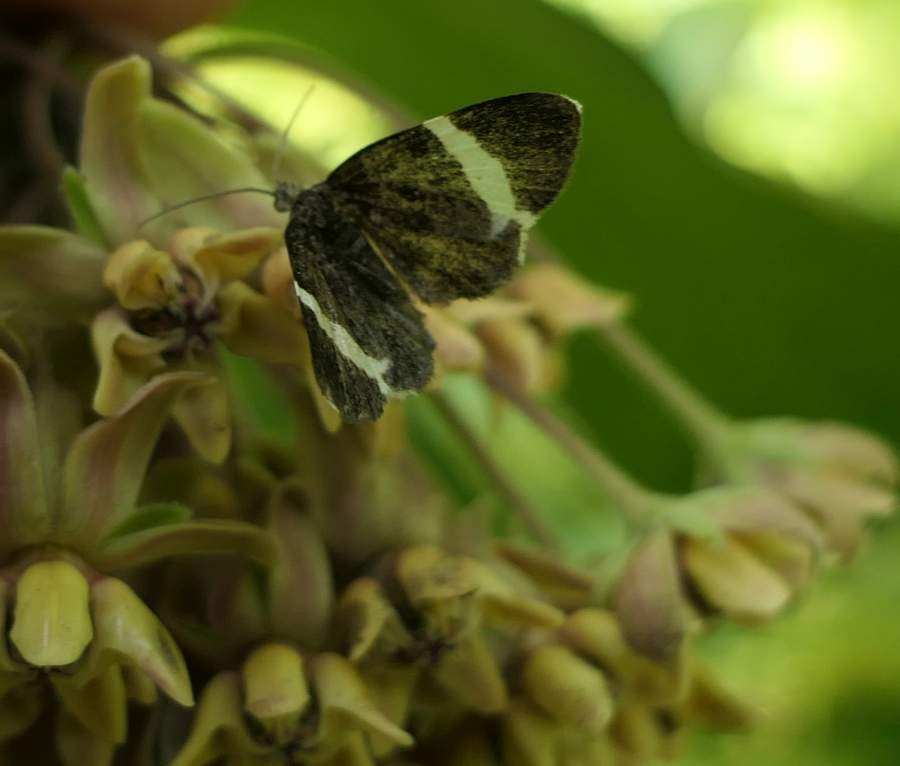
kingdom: Animalia
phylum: Arthropoda
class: Insecta
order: Lepidoptera
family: Geometridae
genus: Trichodezia
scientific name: Trichodezia albovittata
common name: White striped black
